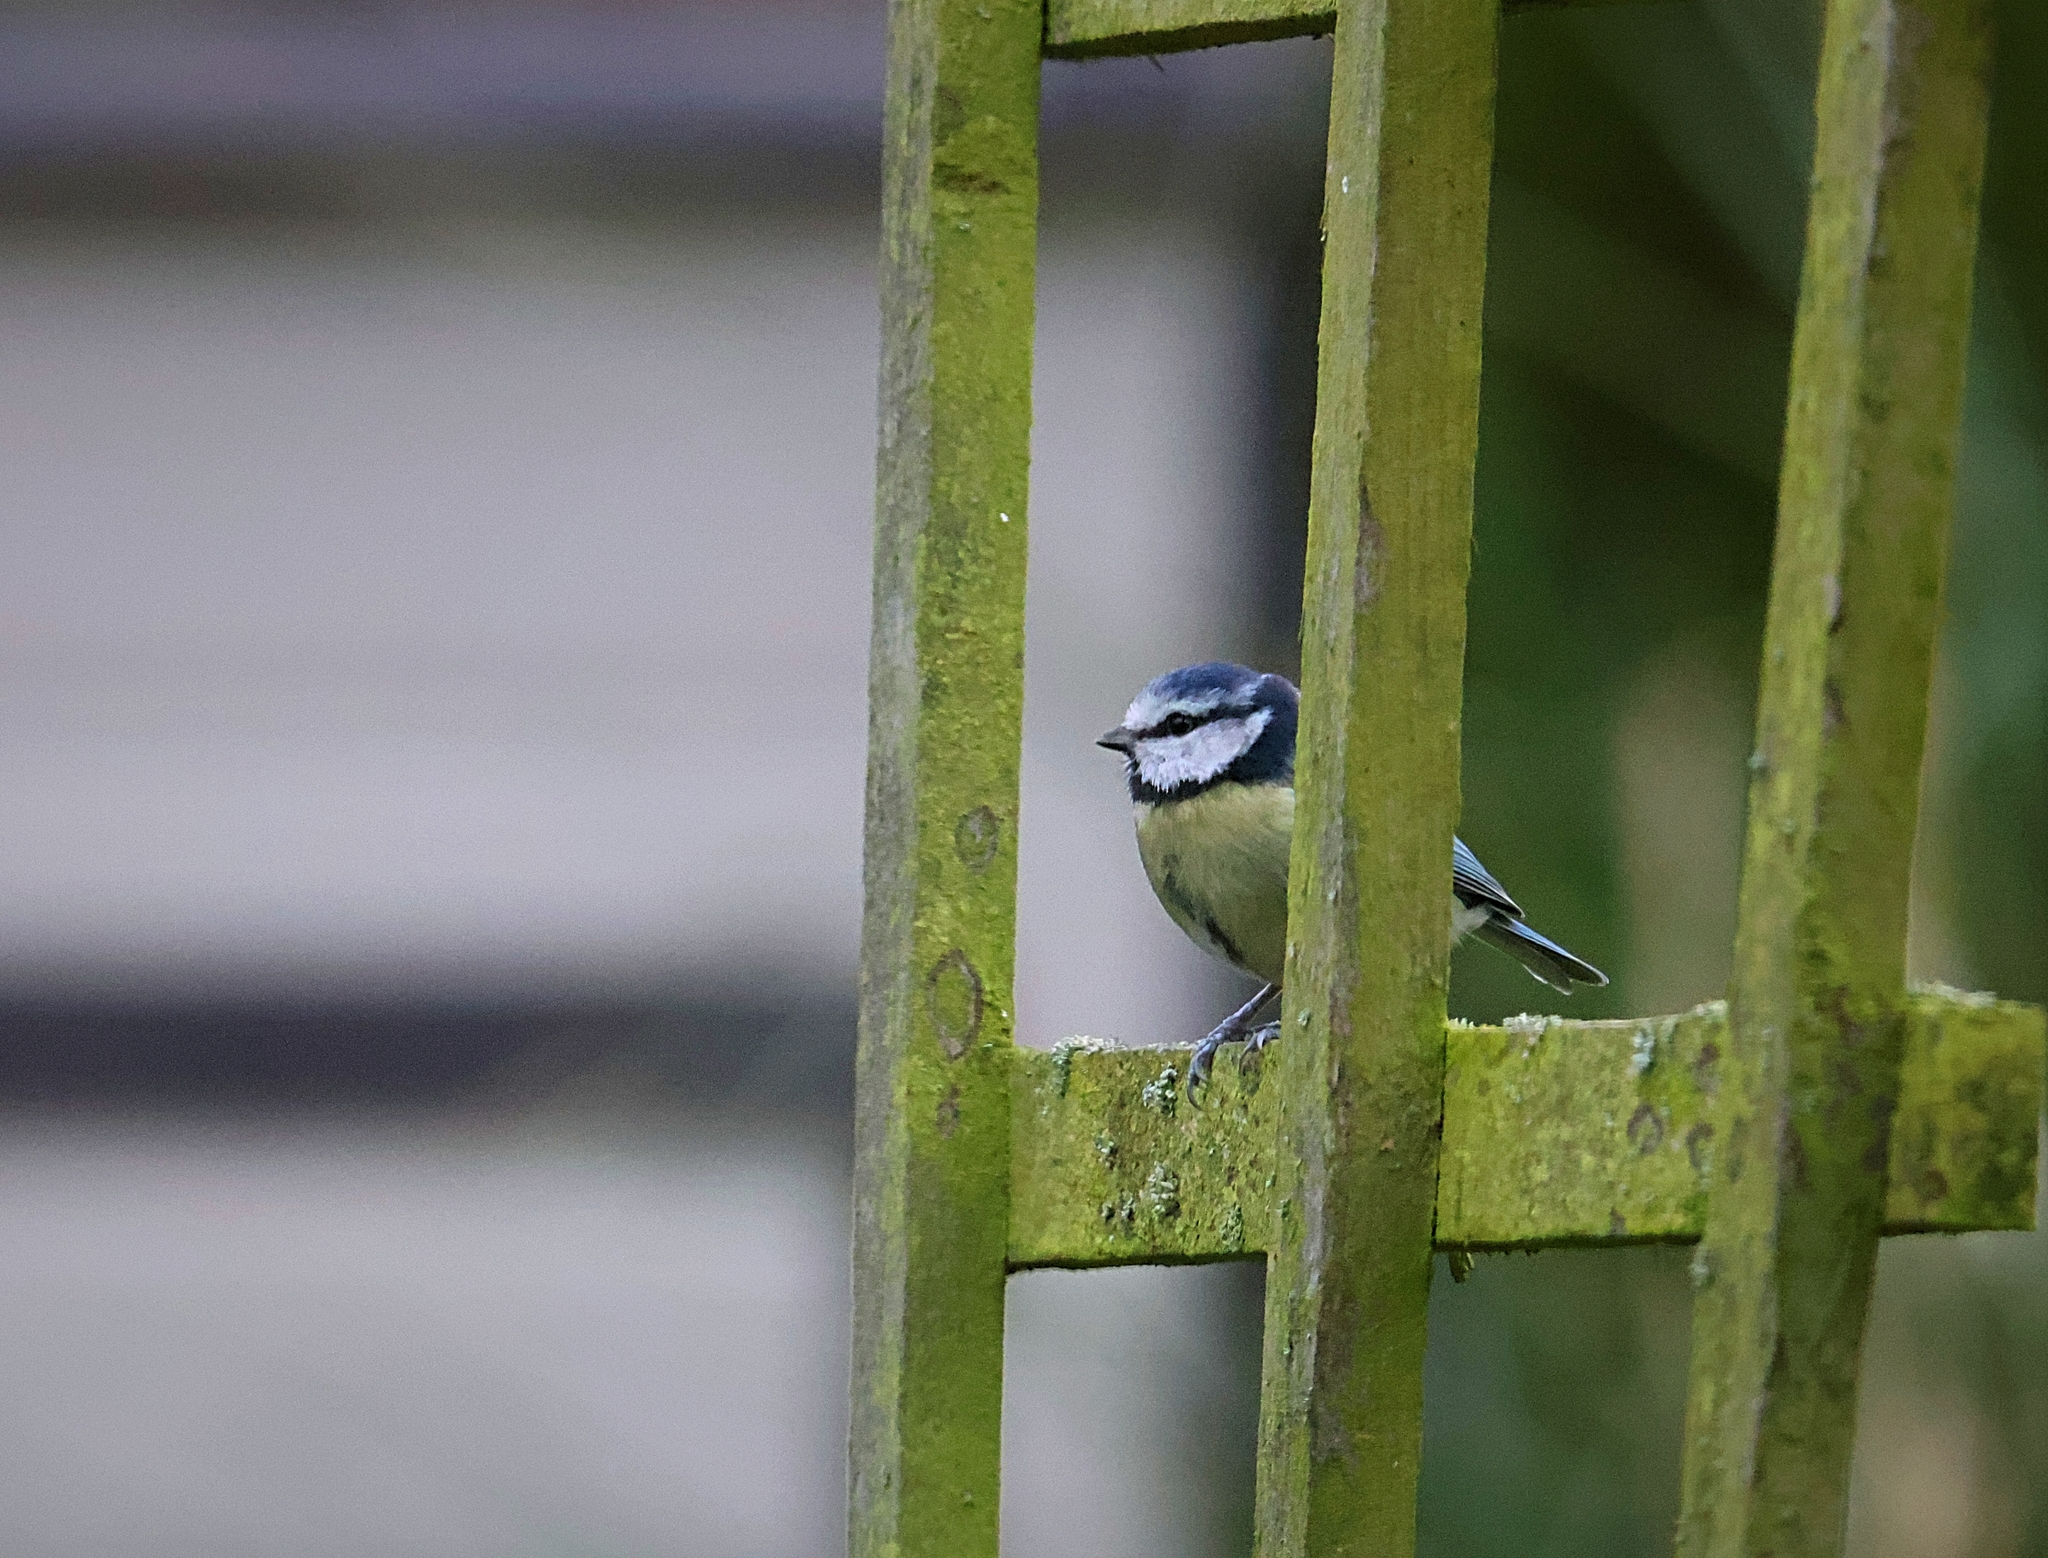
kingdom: Animalia
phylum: Chordata
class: Aves
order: Passeriformes
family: Paridae
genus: Cyanistes
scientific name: Cyanistes caeruleus
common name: Eurasian blue tit
